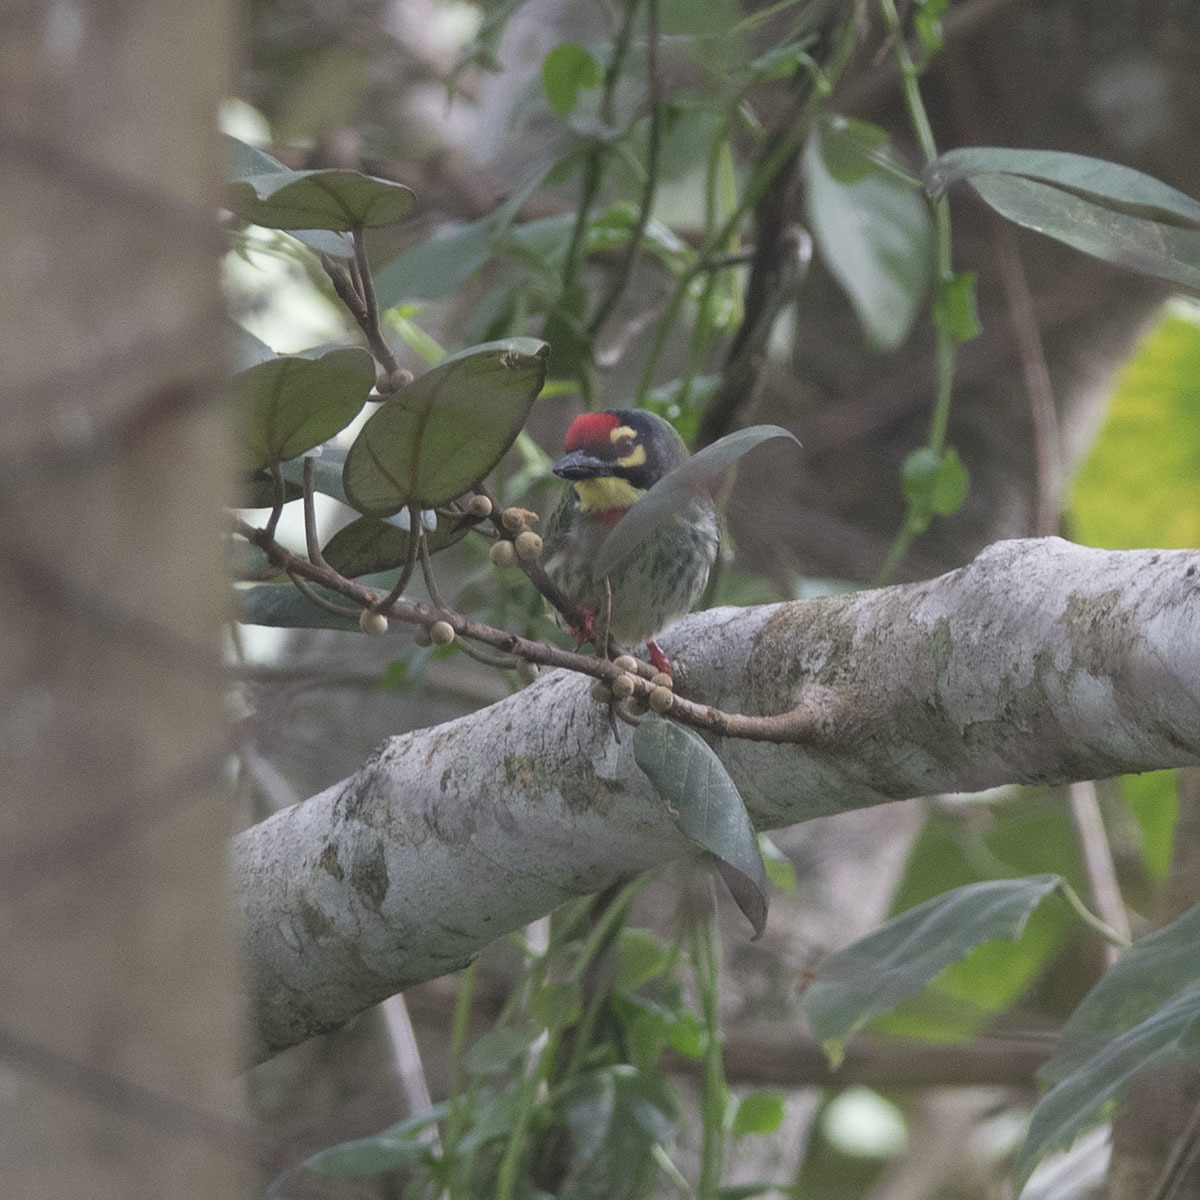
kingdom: Animalia
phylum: Chordata
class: Aves
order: Piciformes
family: Megalaimidae
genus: Psilopogon
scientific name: Psilopogon haemacephalus
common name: Coppersmith barbet
